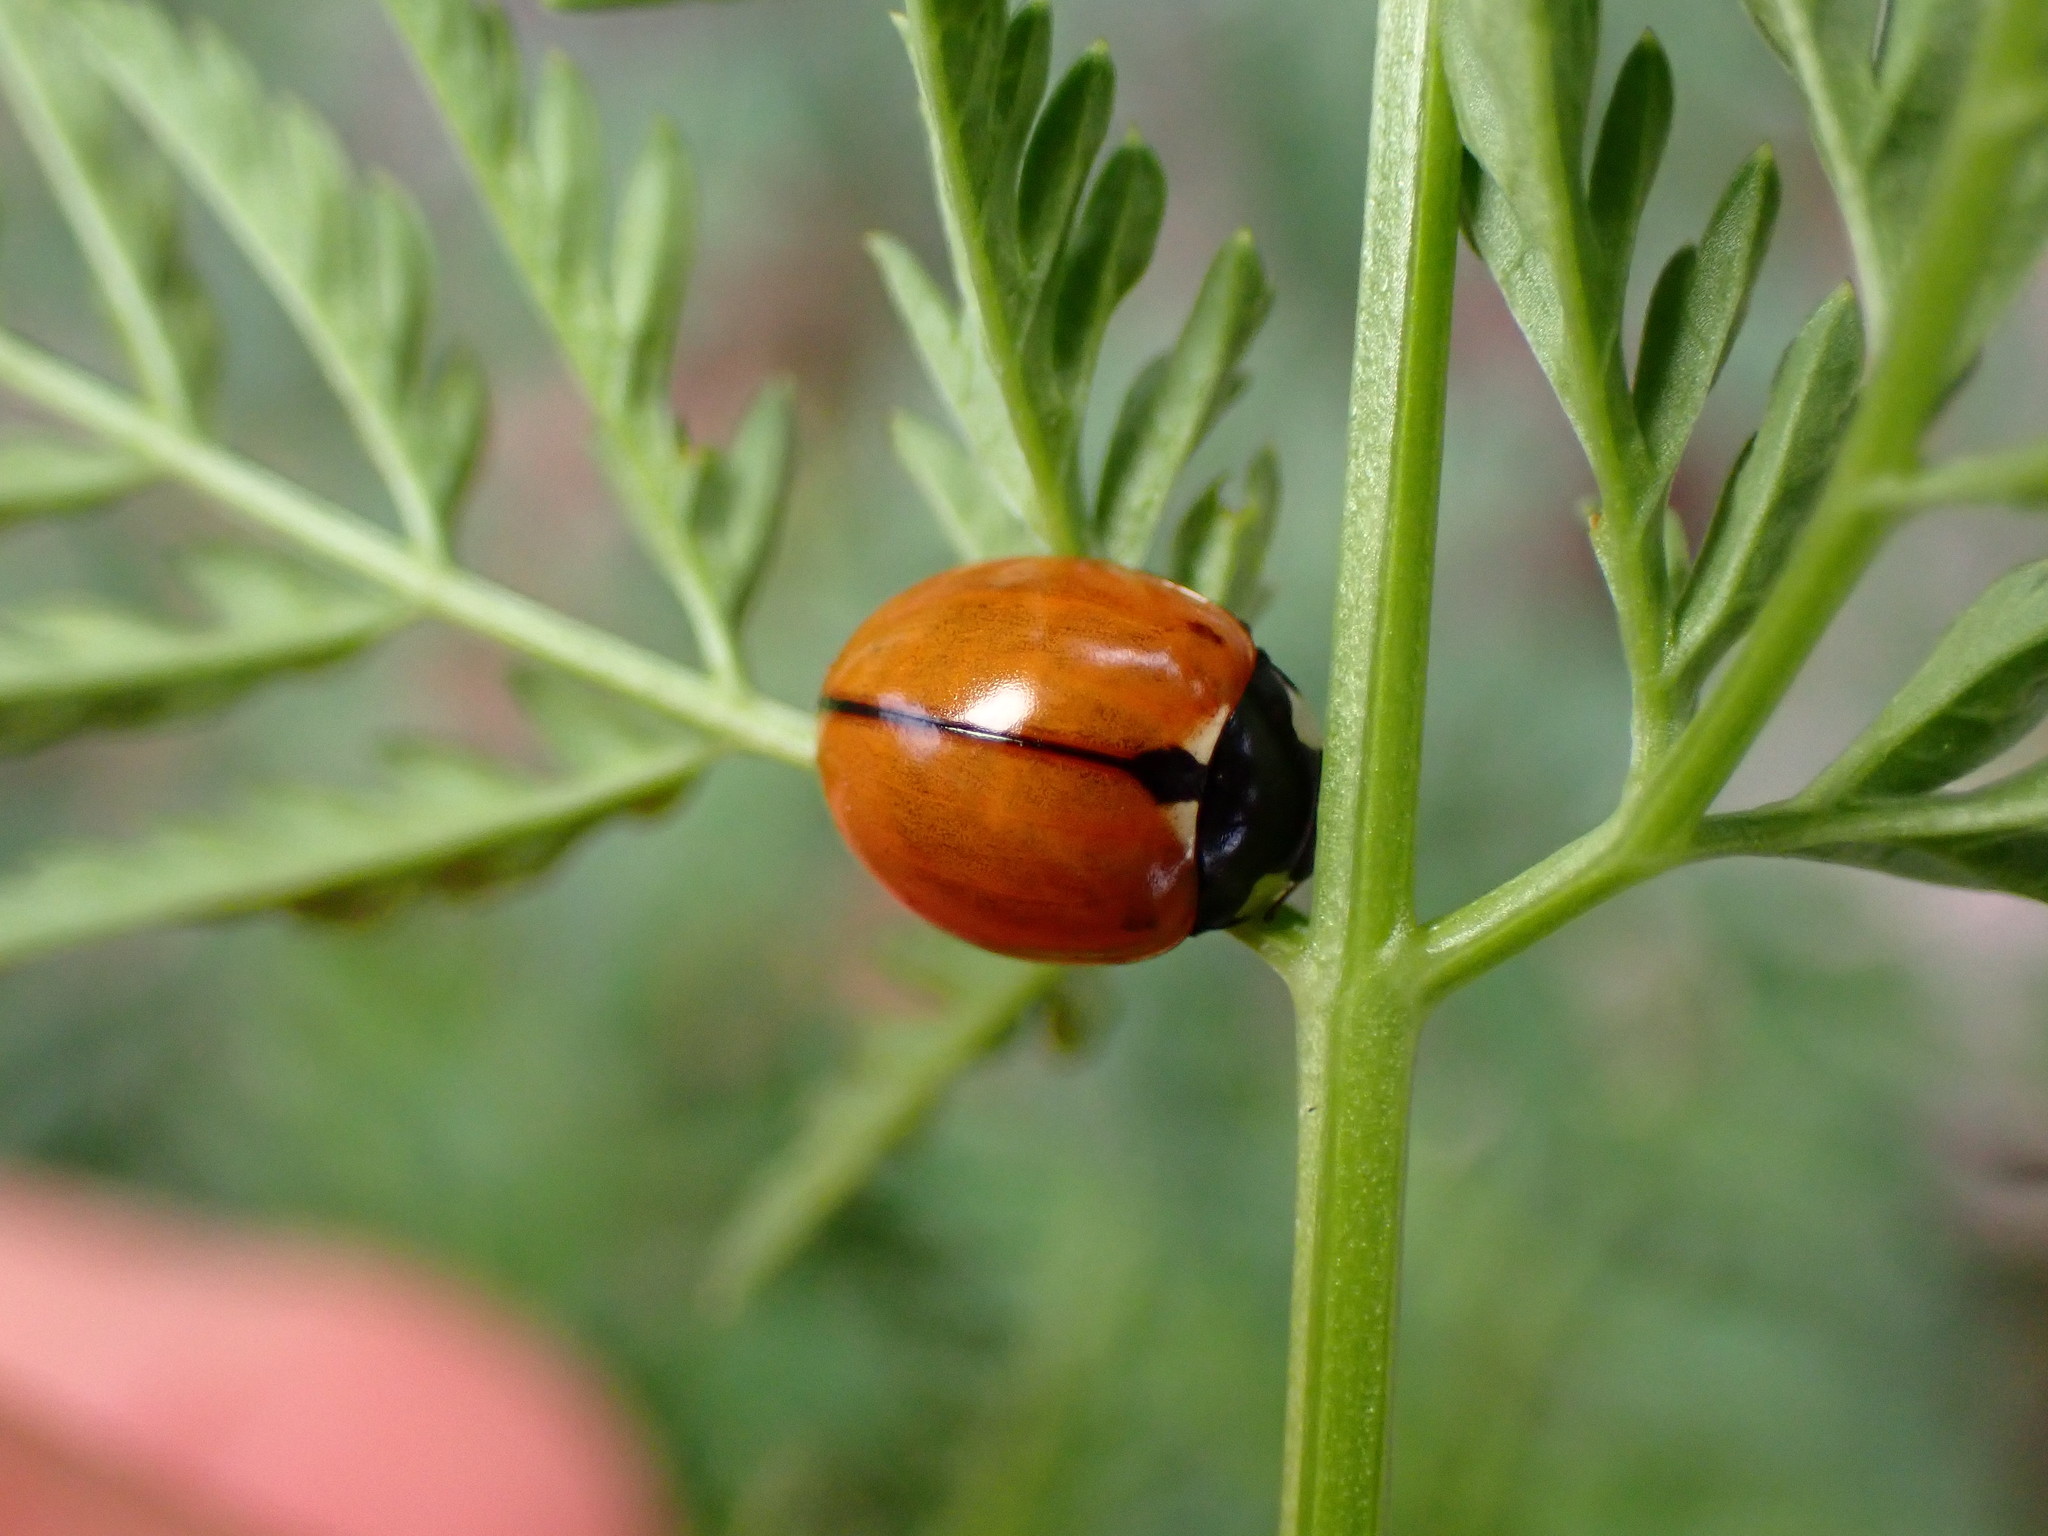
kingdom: Animalia
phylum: Arthropoda
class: Insecta
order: Coleoptera
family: Coccinellidae
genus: Coccinella
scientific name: Coccinella californica
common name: Lady beetle
